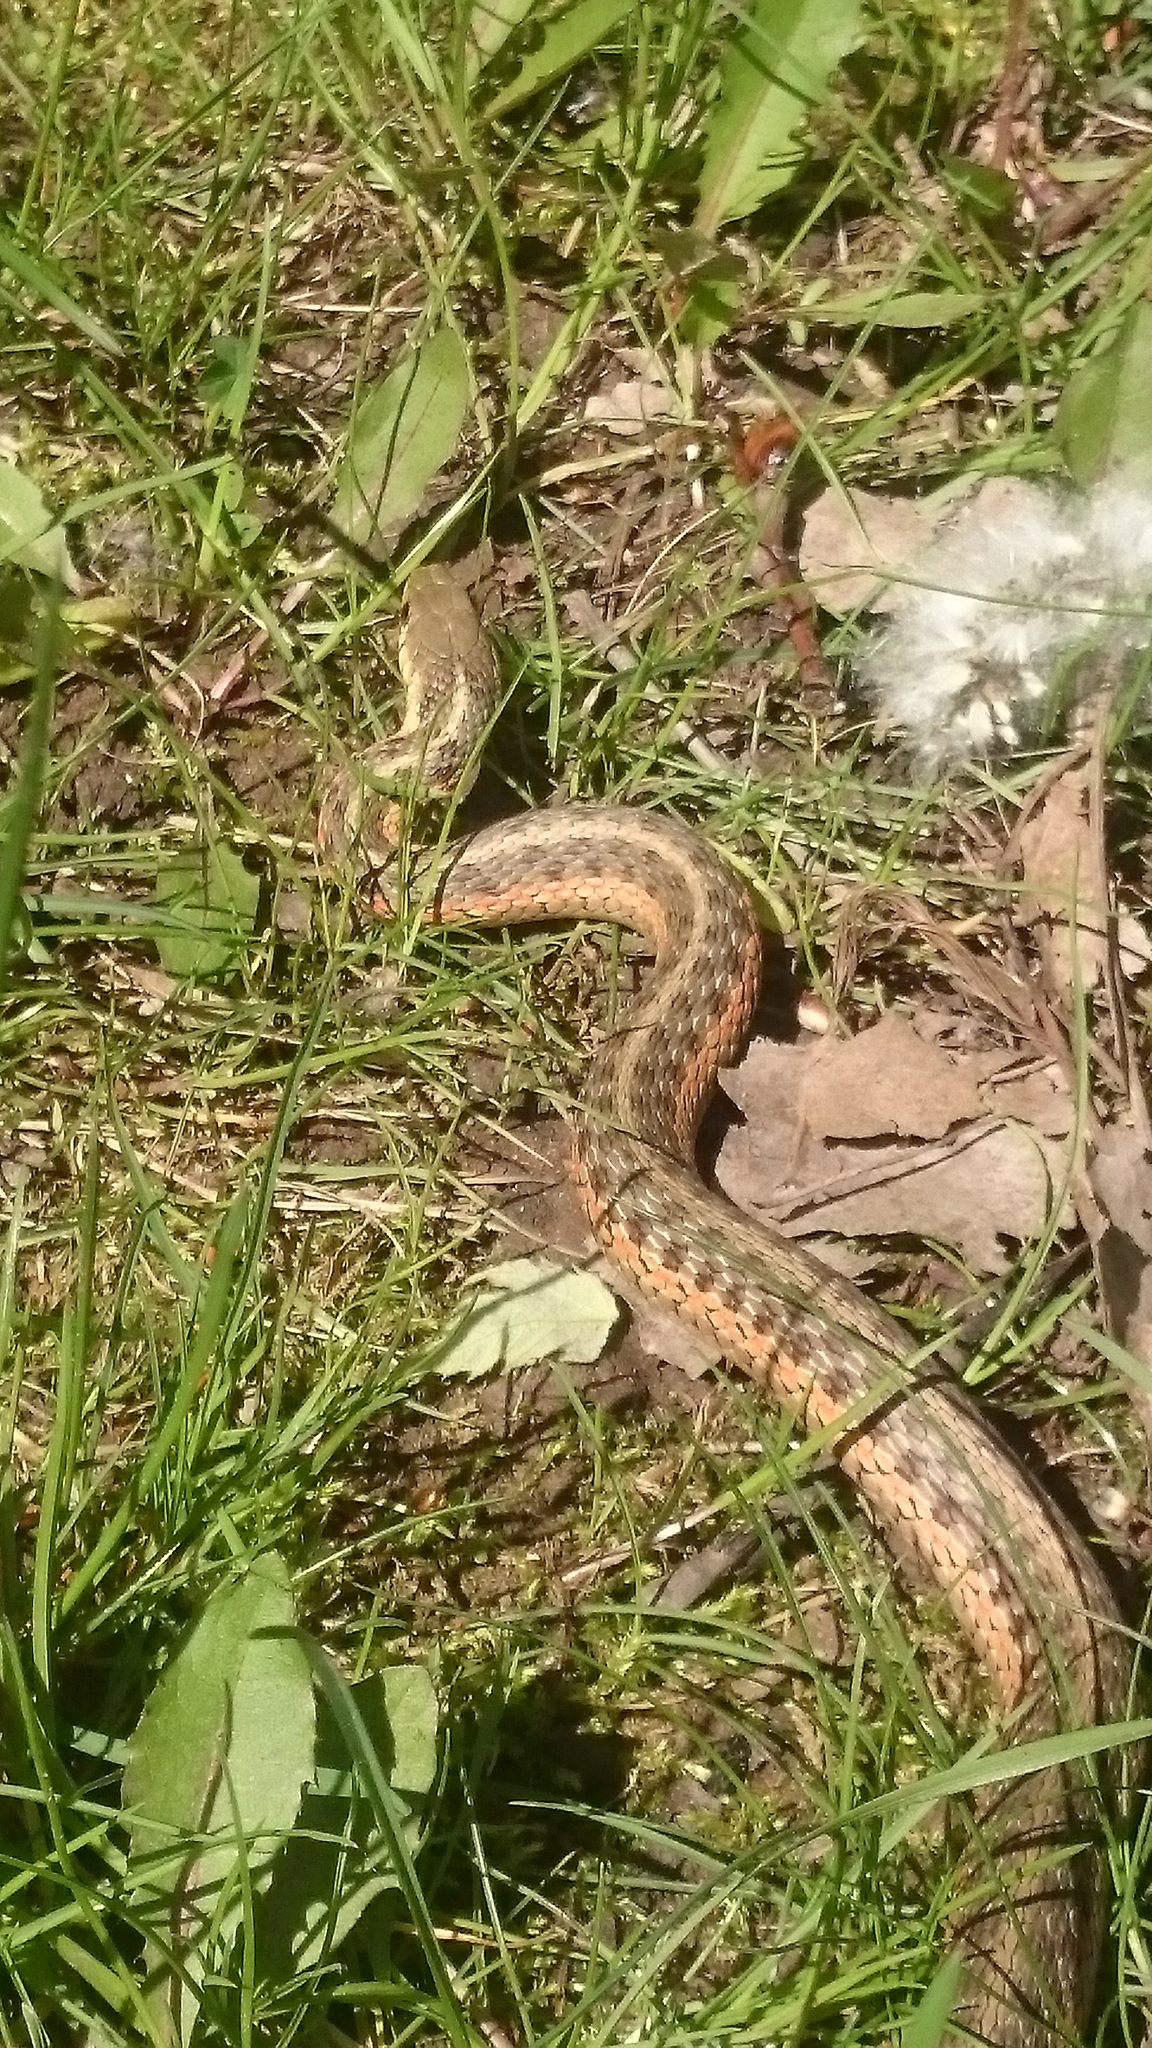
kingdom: Animalia
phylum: Chordata
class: Squamata
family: Colubridae
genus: Thamnophis
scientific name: Thamnophis sirtalis
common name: Common garter snake
